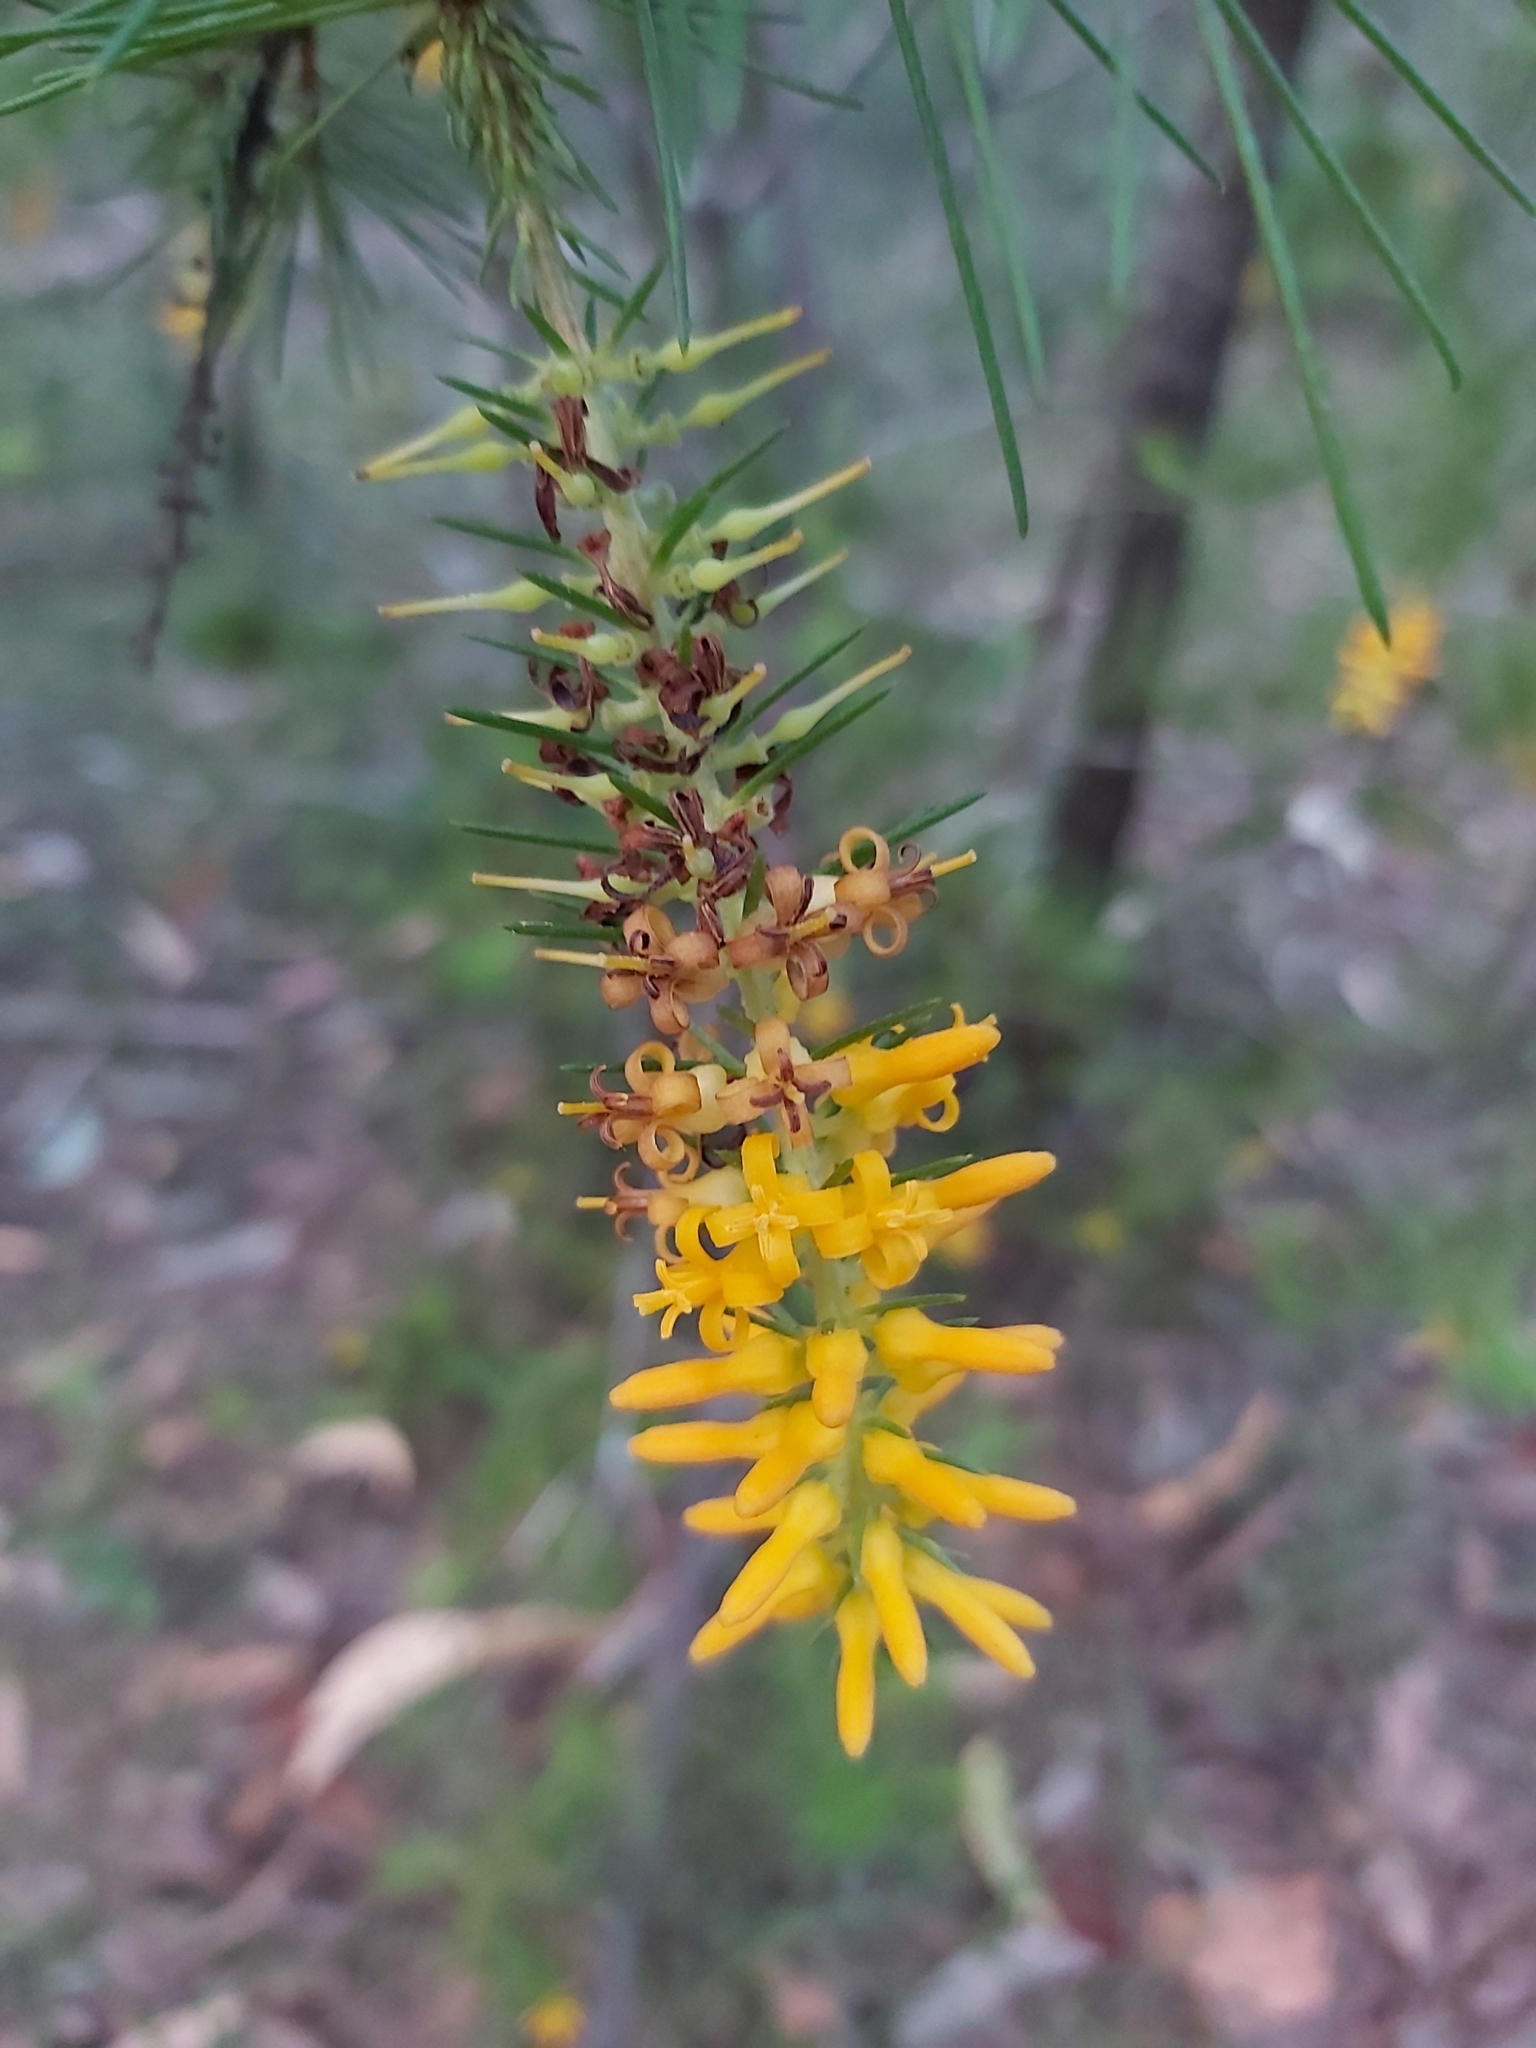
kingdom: Plantae
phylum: Tracheophyta
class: Magnoliopsida
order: Proteales
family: Proteaceae
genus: Persoonia
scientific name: Persoonia pinifolia
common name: Pine-leaf geebung
